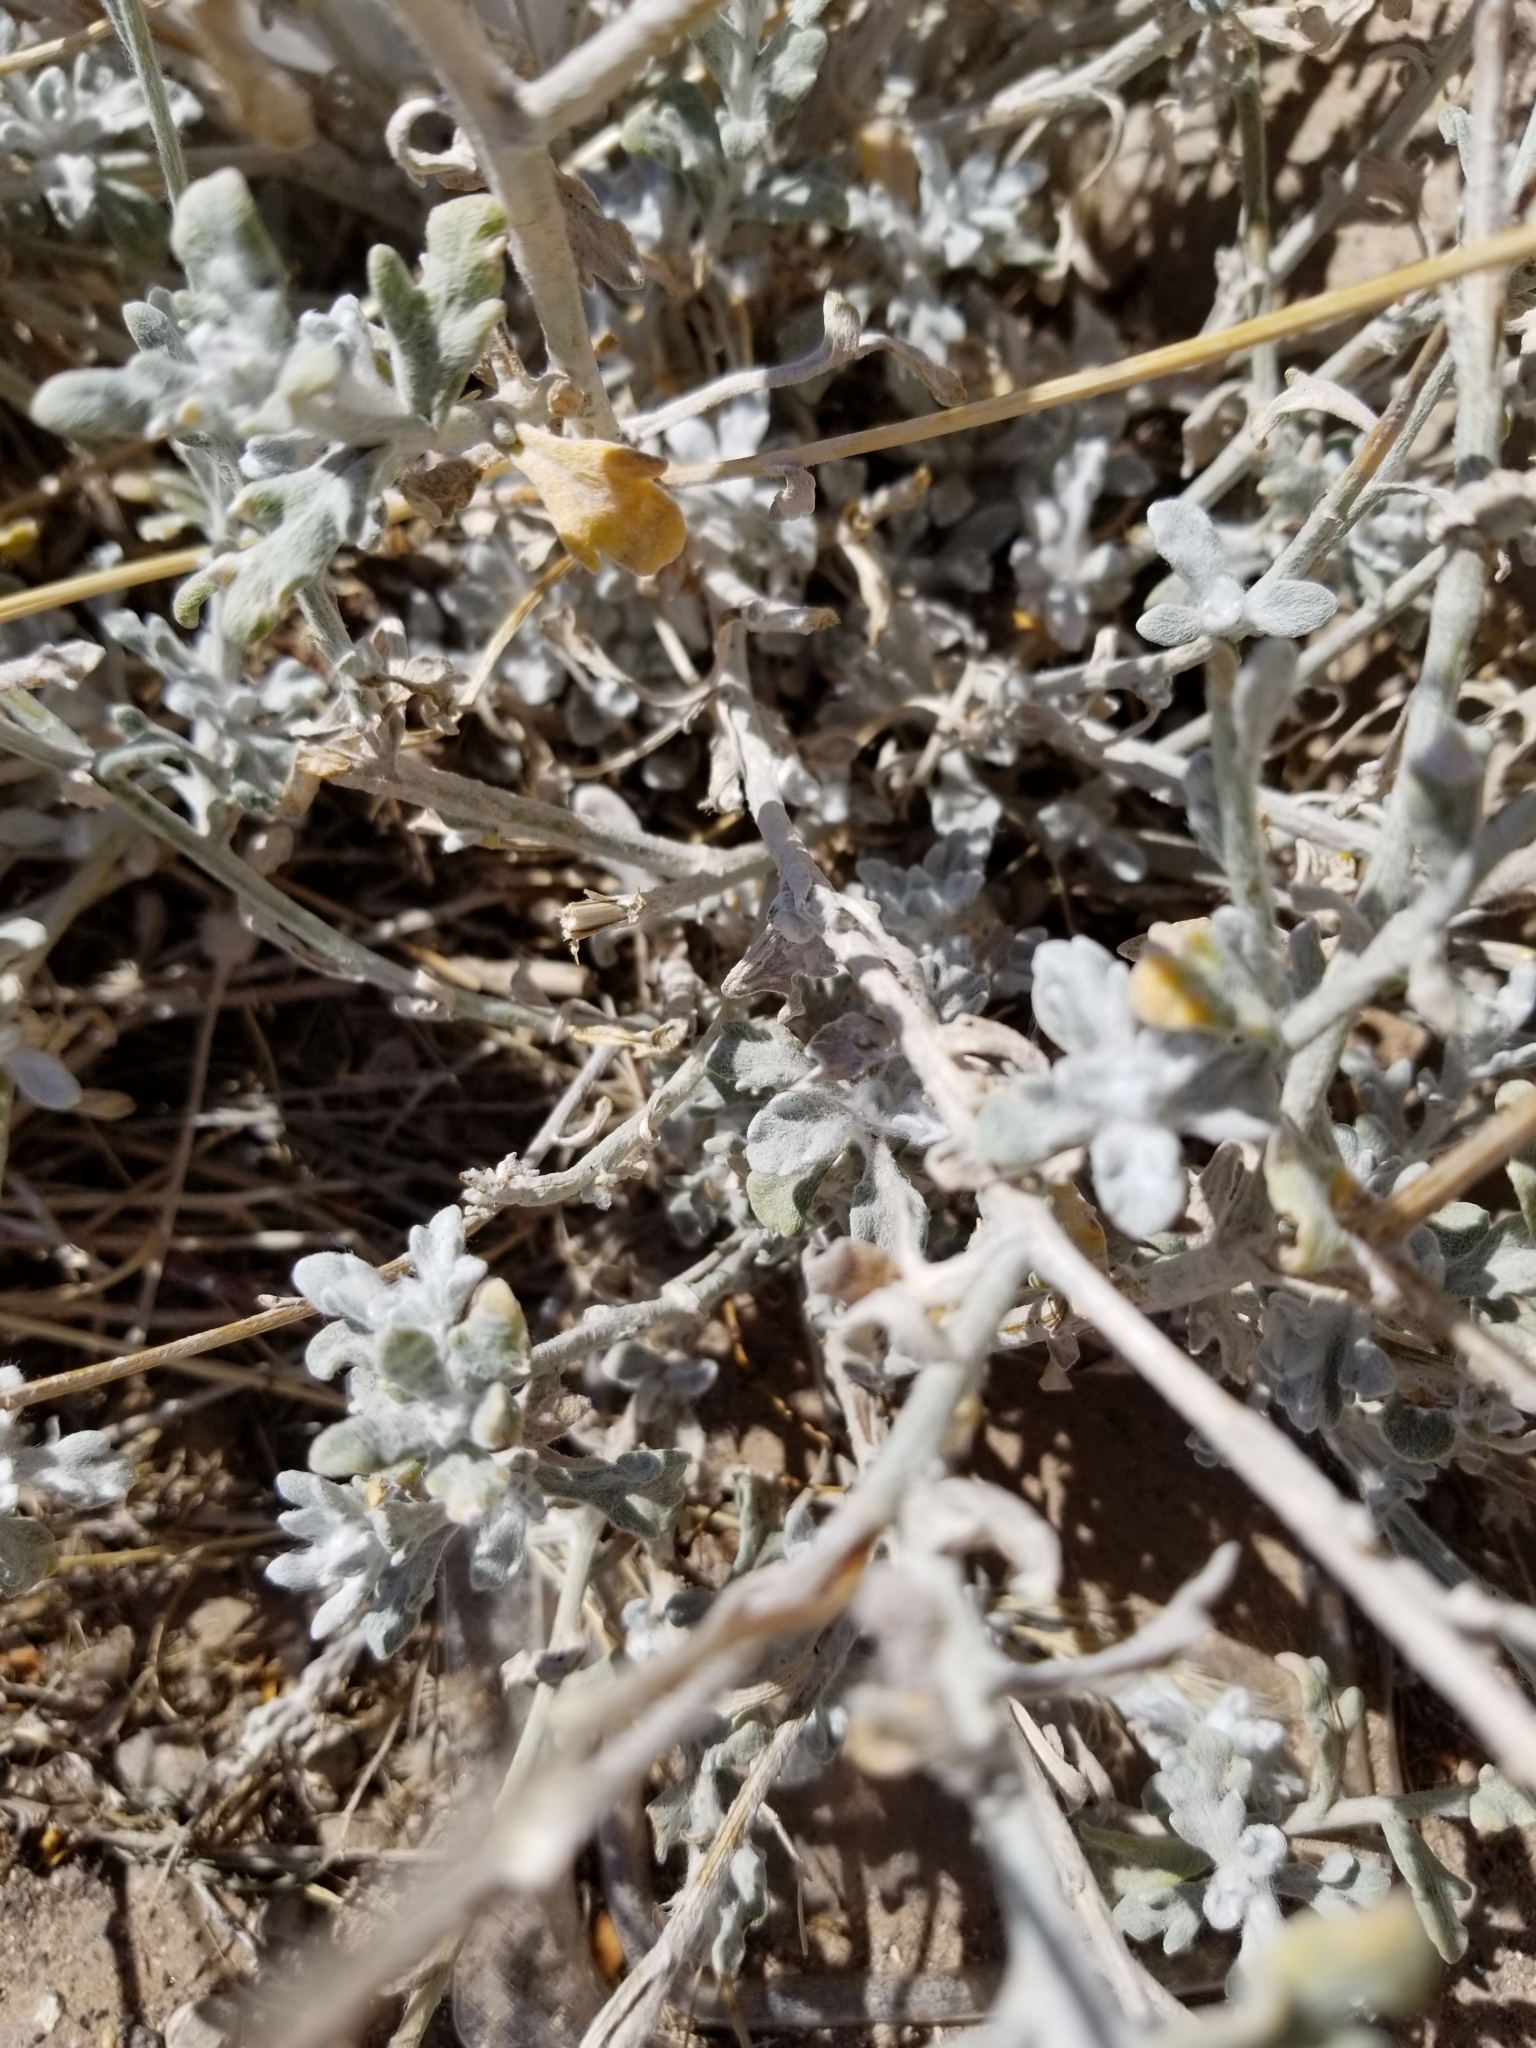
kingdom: Plantae
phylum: Tracheophyta
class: Magnoliopsida
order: Asterales
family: Asteraceae
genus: Baileya
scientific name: Baileya multiradiata
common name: Desert-marigold
